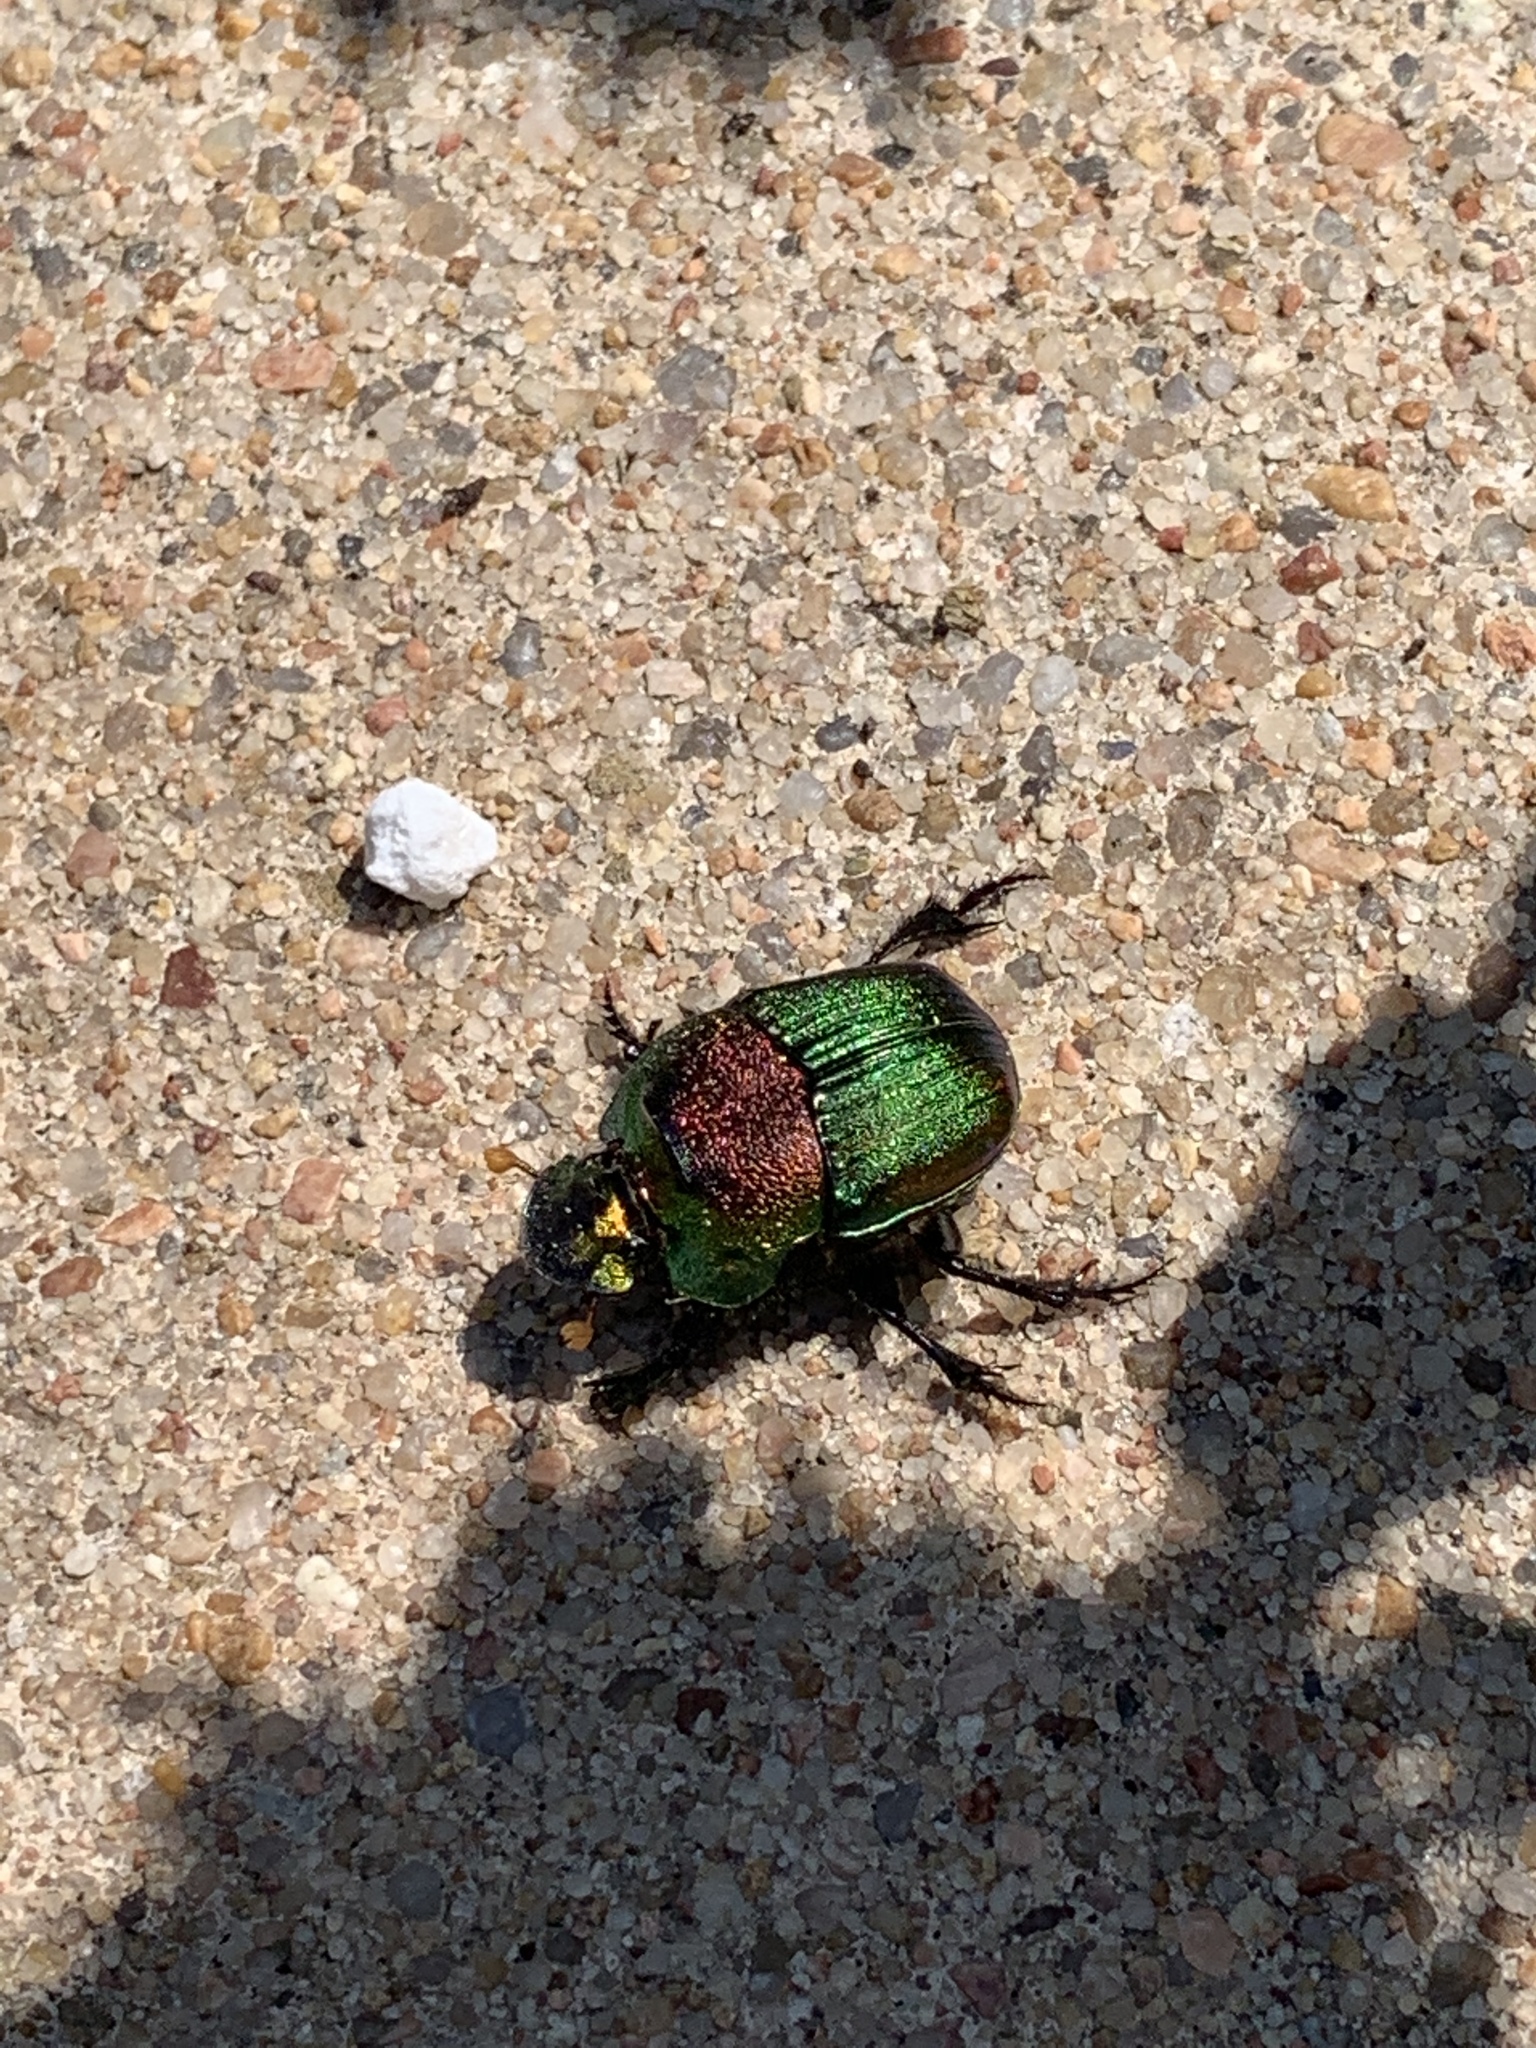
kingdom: Animalia
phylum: Arthropoda
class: Insecta
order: Coleoptera
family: Scarabaeidae
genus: Phanaeus
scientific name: Phanaeus vindex
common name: Rainbow scarab
